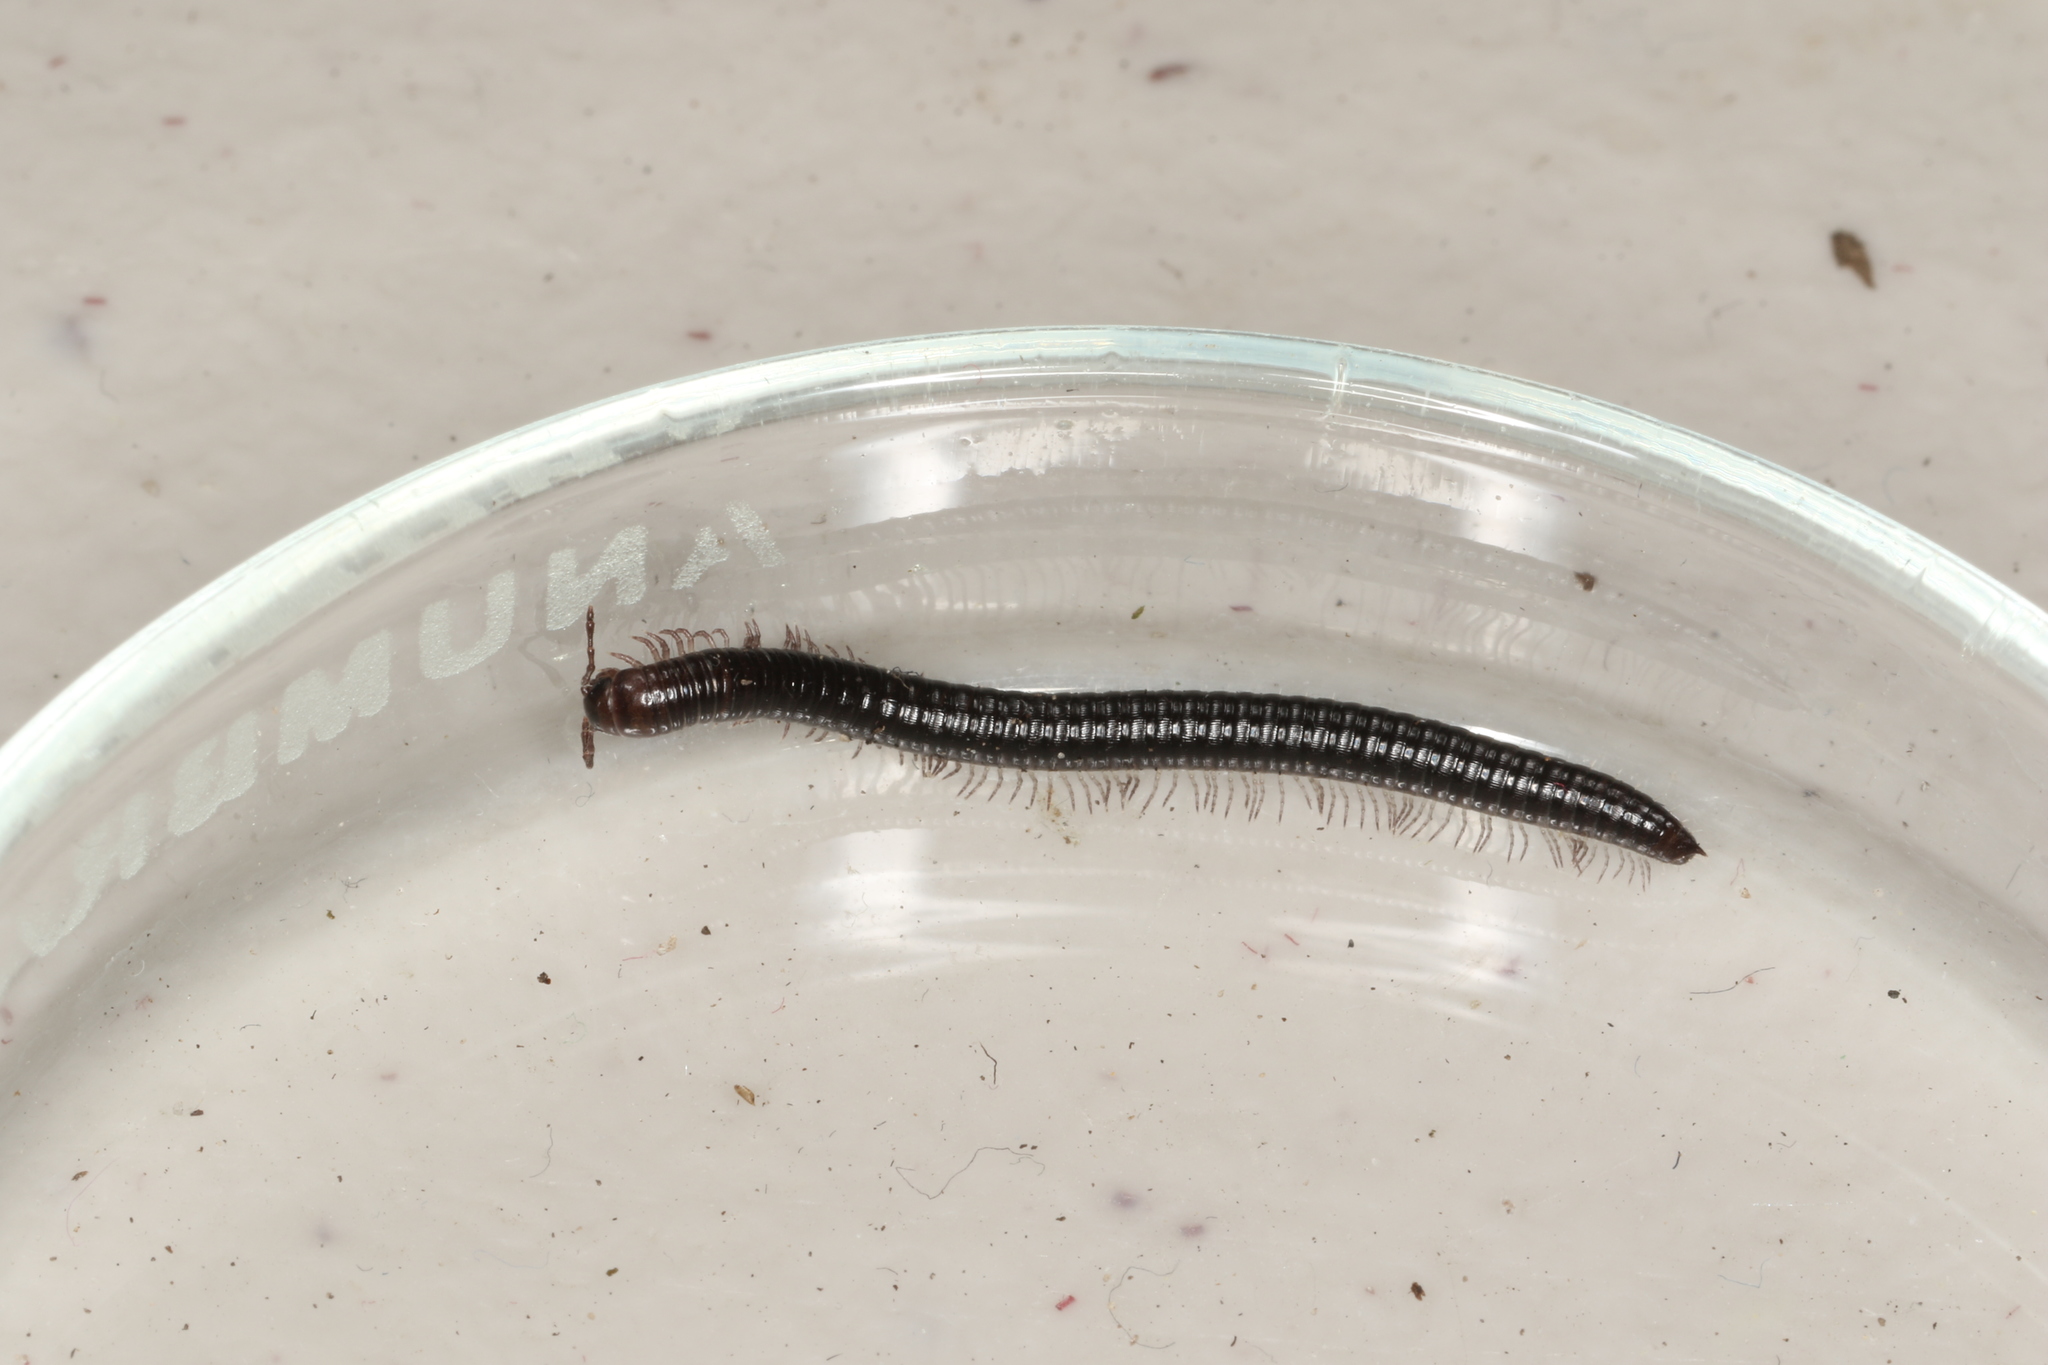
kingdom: Animalia
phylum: Arthropoda
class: Diplopoda
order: Julida
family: Julidae
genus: Julus
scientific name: Julus scandinavius
